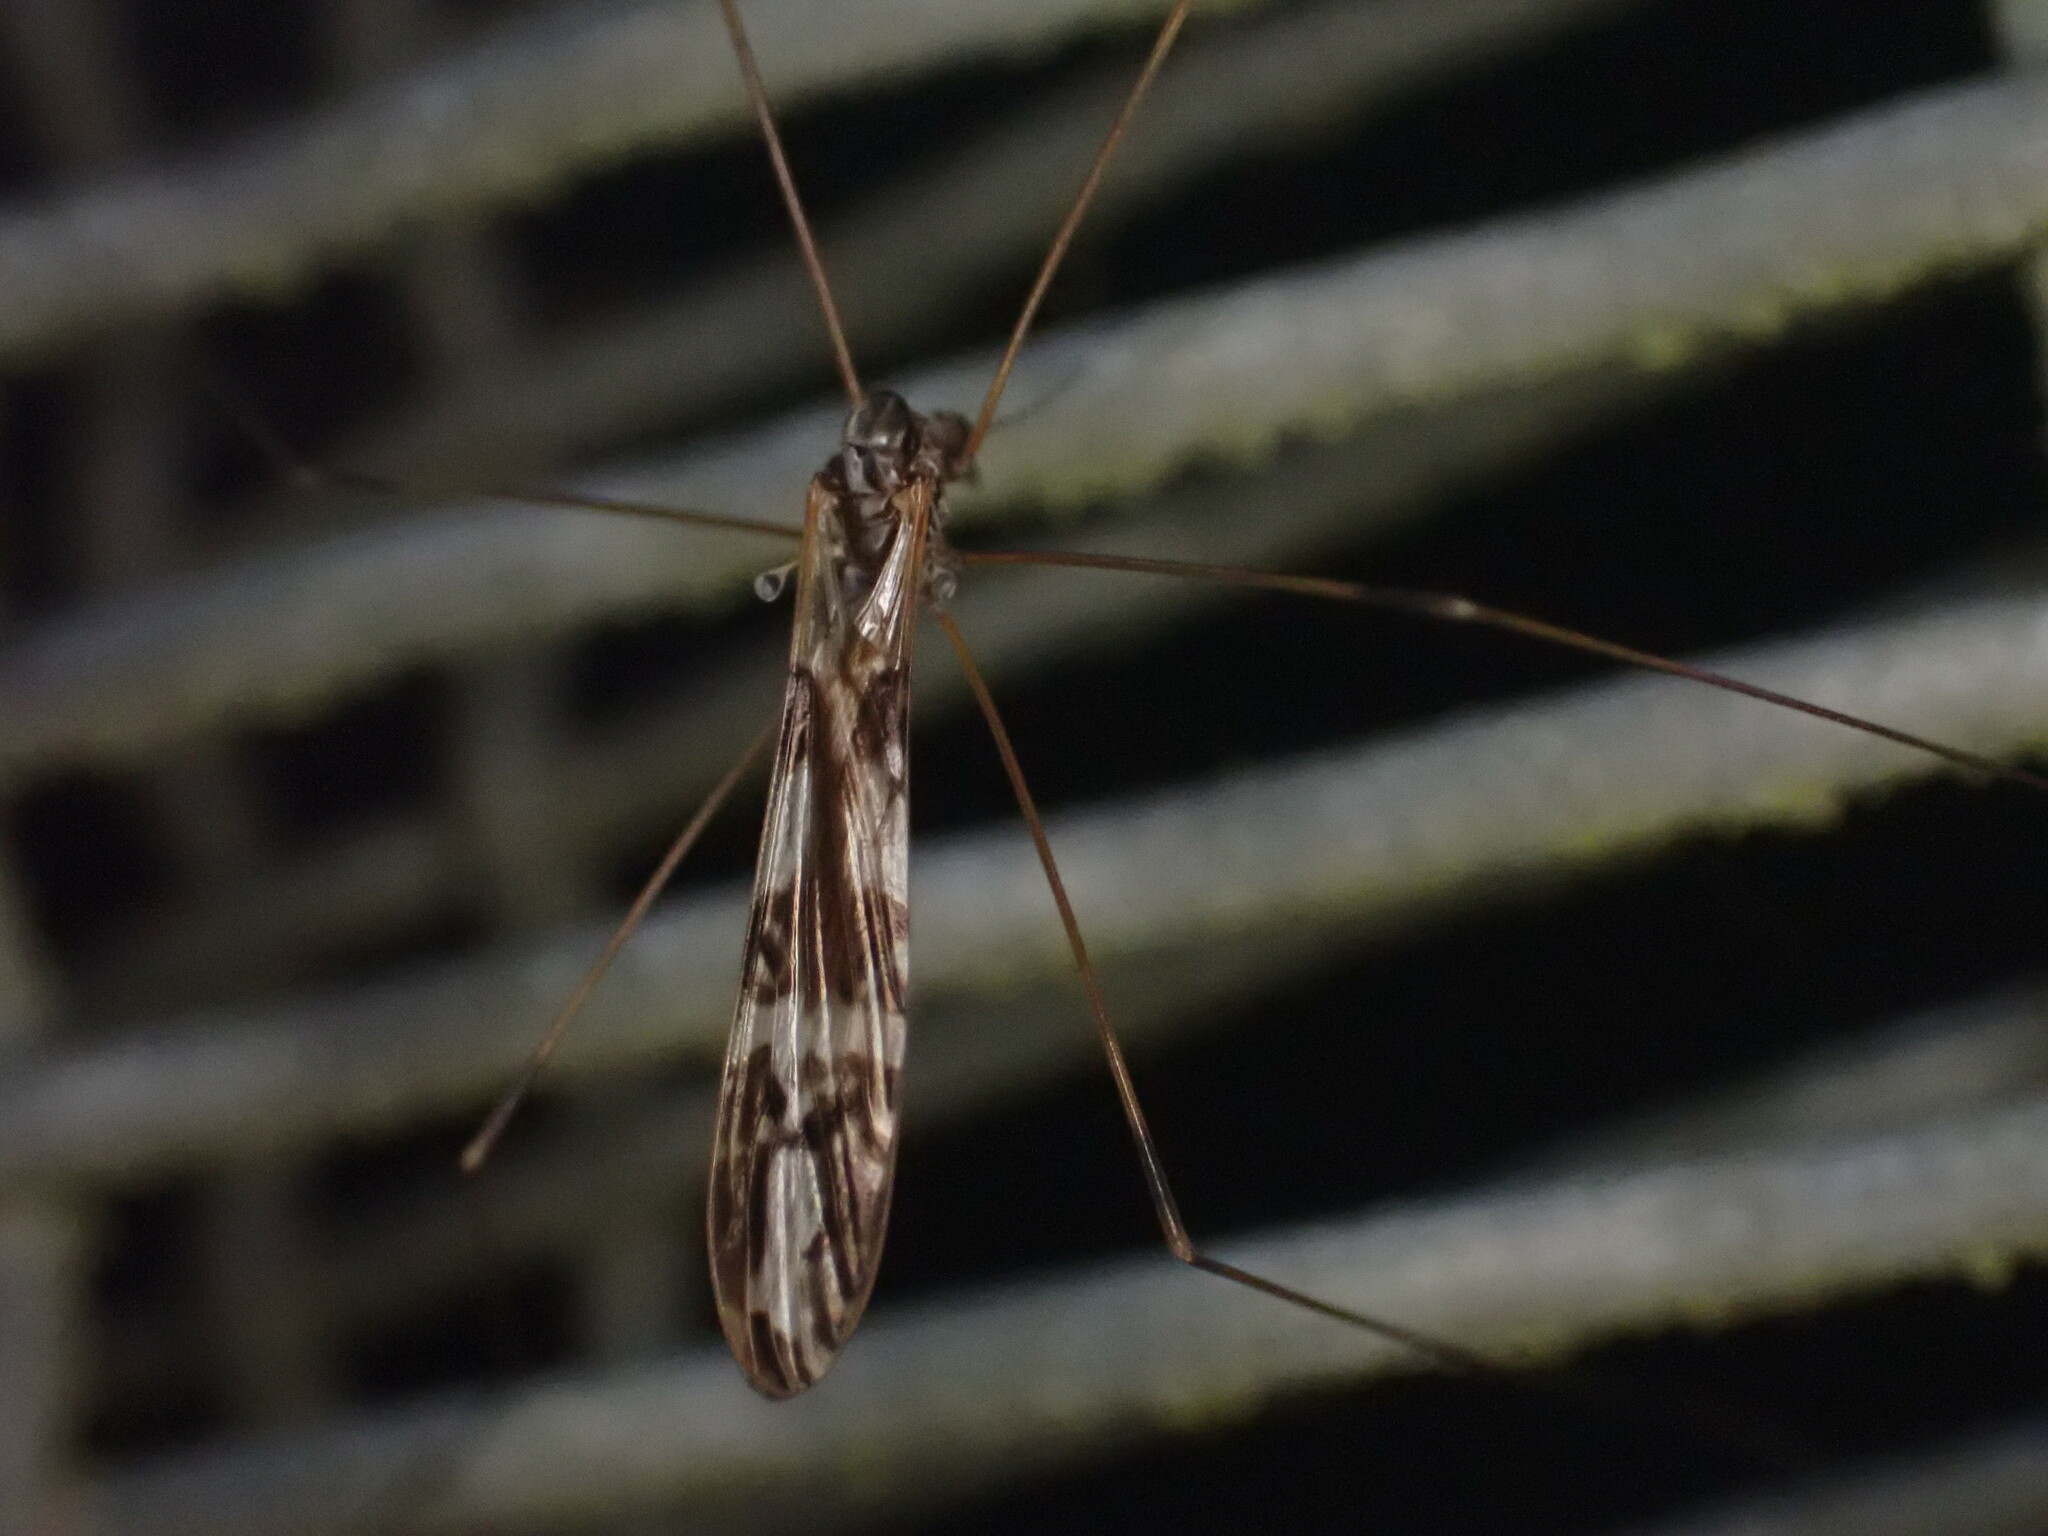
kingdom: Animalia
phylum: Arthropoda
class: Insecta
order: Diptera
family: Limoniidae
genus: Discobola
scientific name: Discobola dohrni
